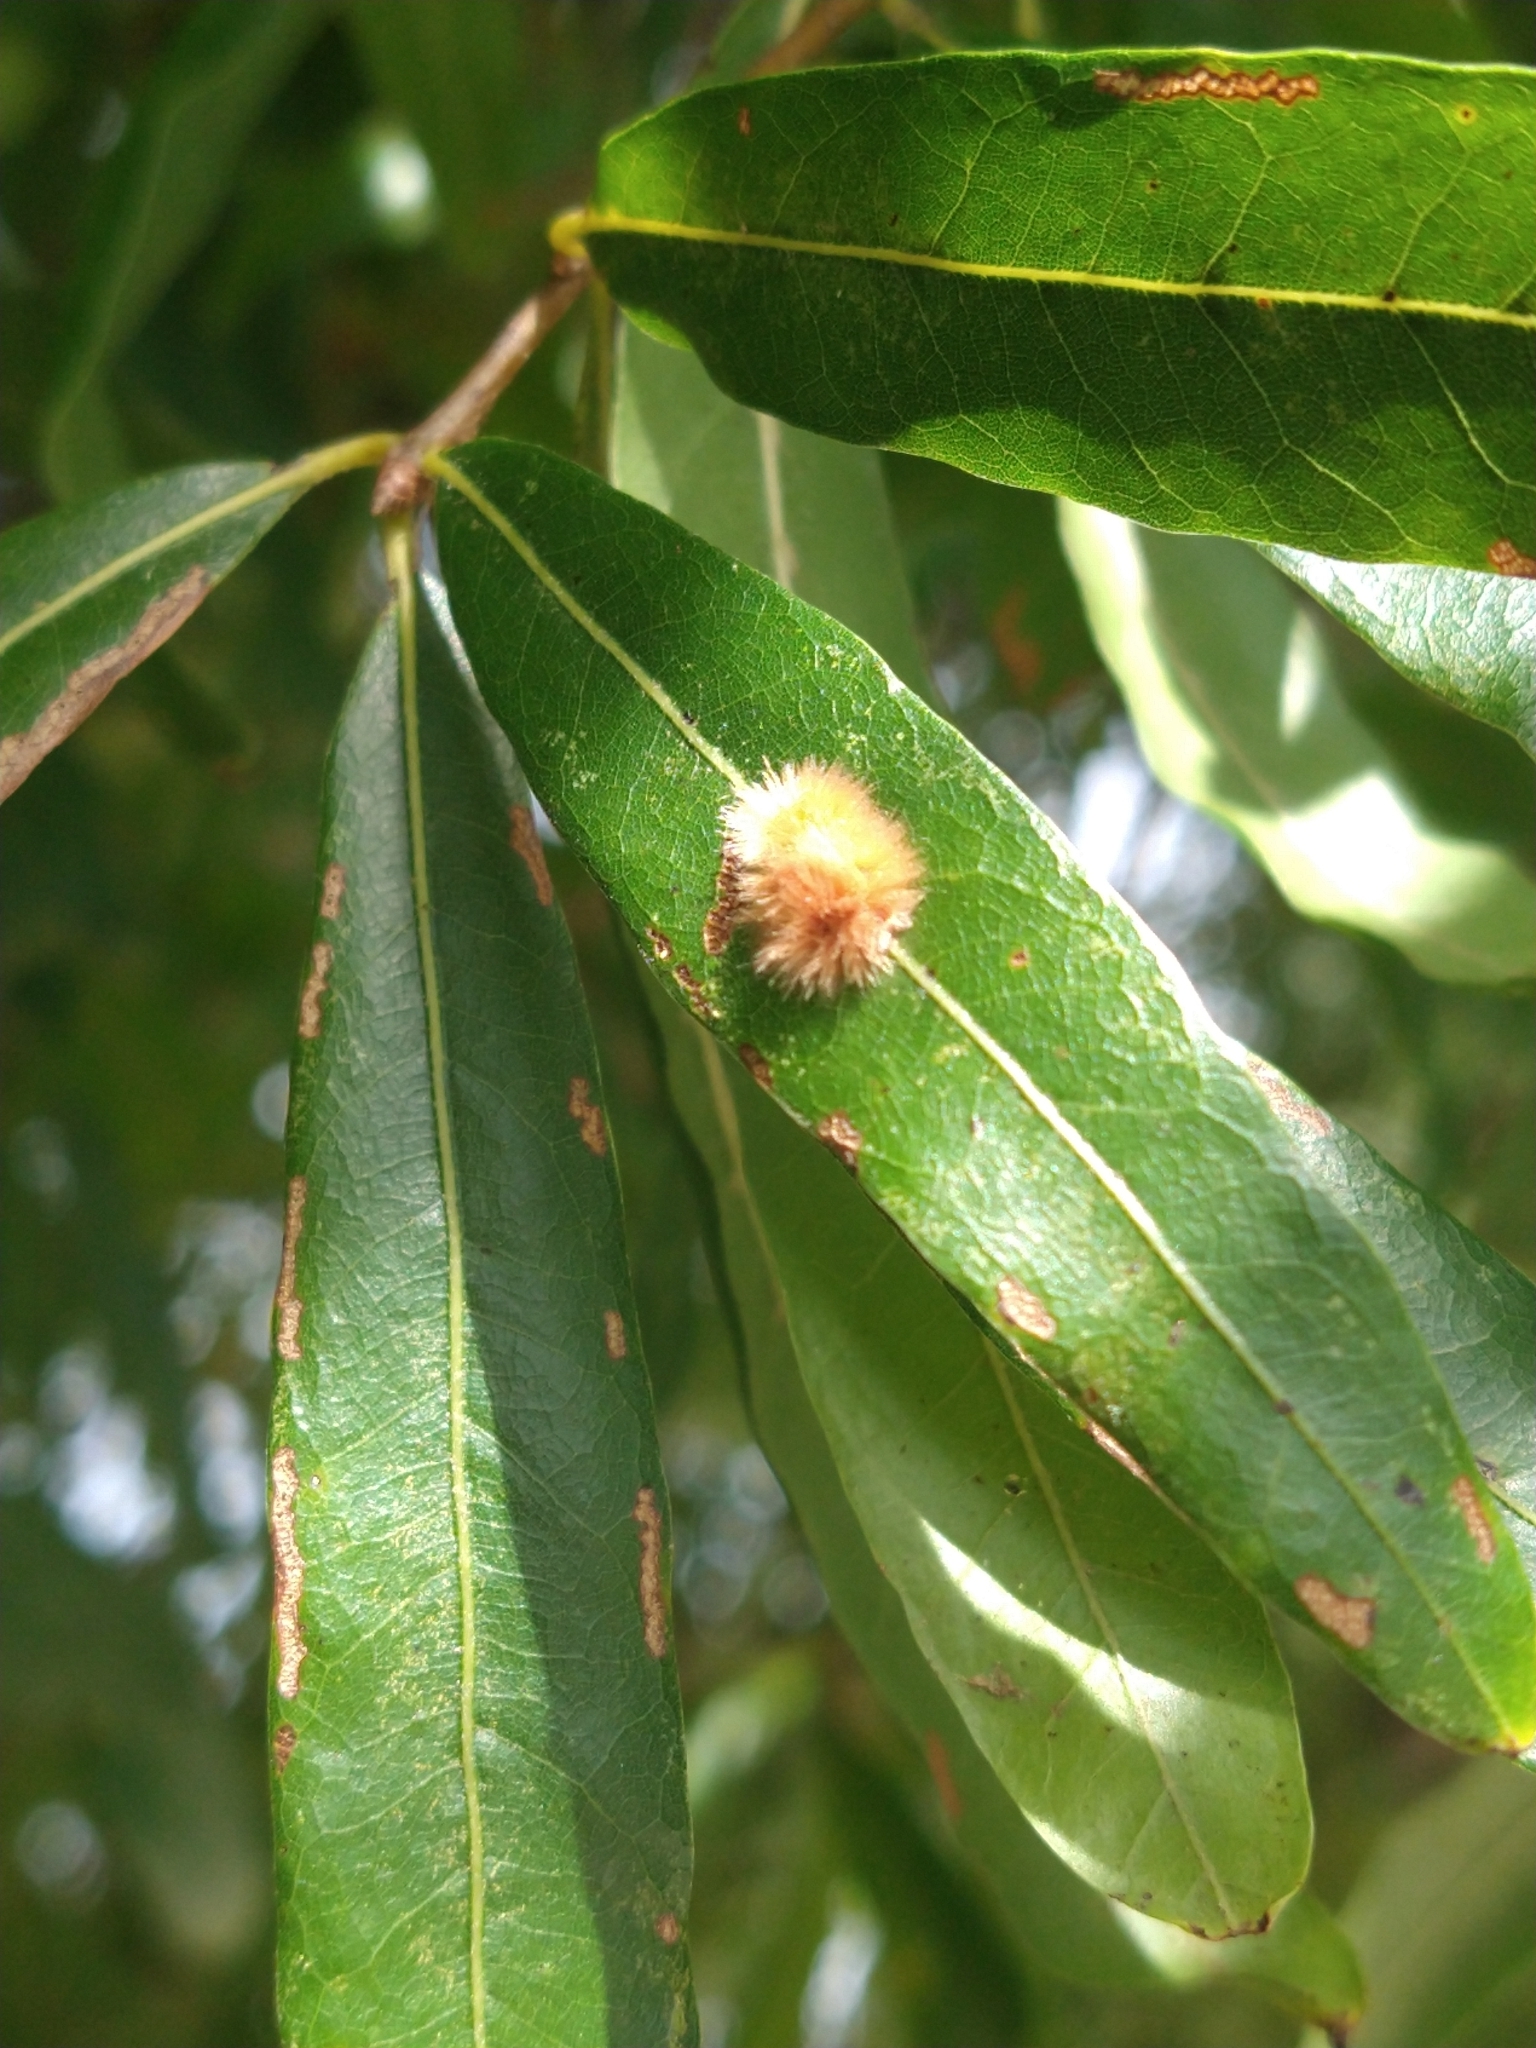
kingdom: Animalia
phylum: Arthropoda
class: Insecta
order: Hymenoptera
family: Cynipidae
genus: Callirhytis
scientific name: Callirhytis
